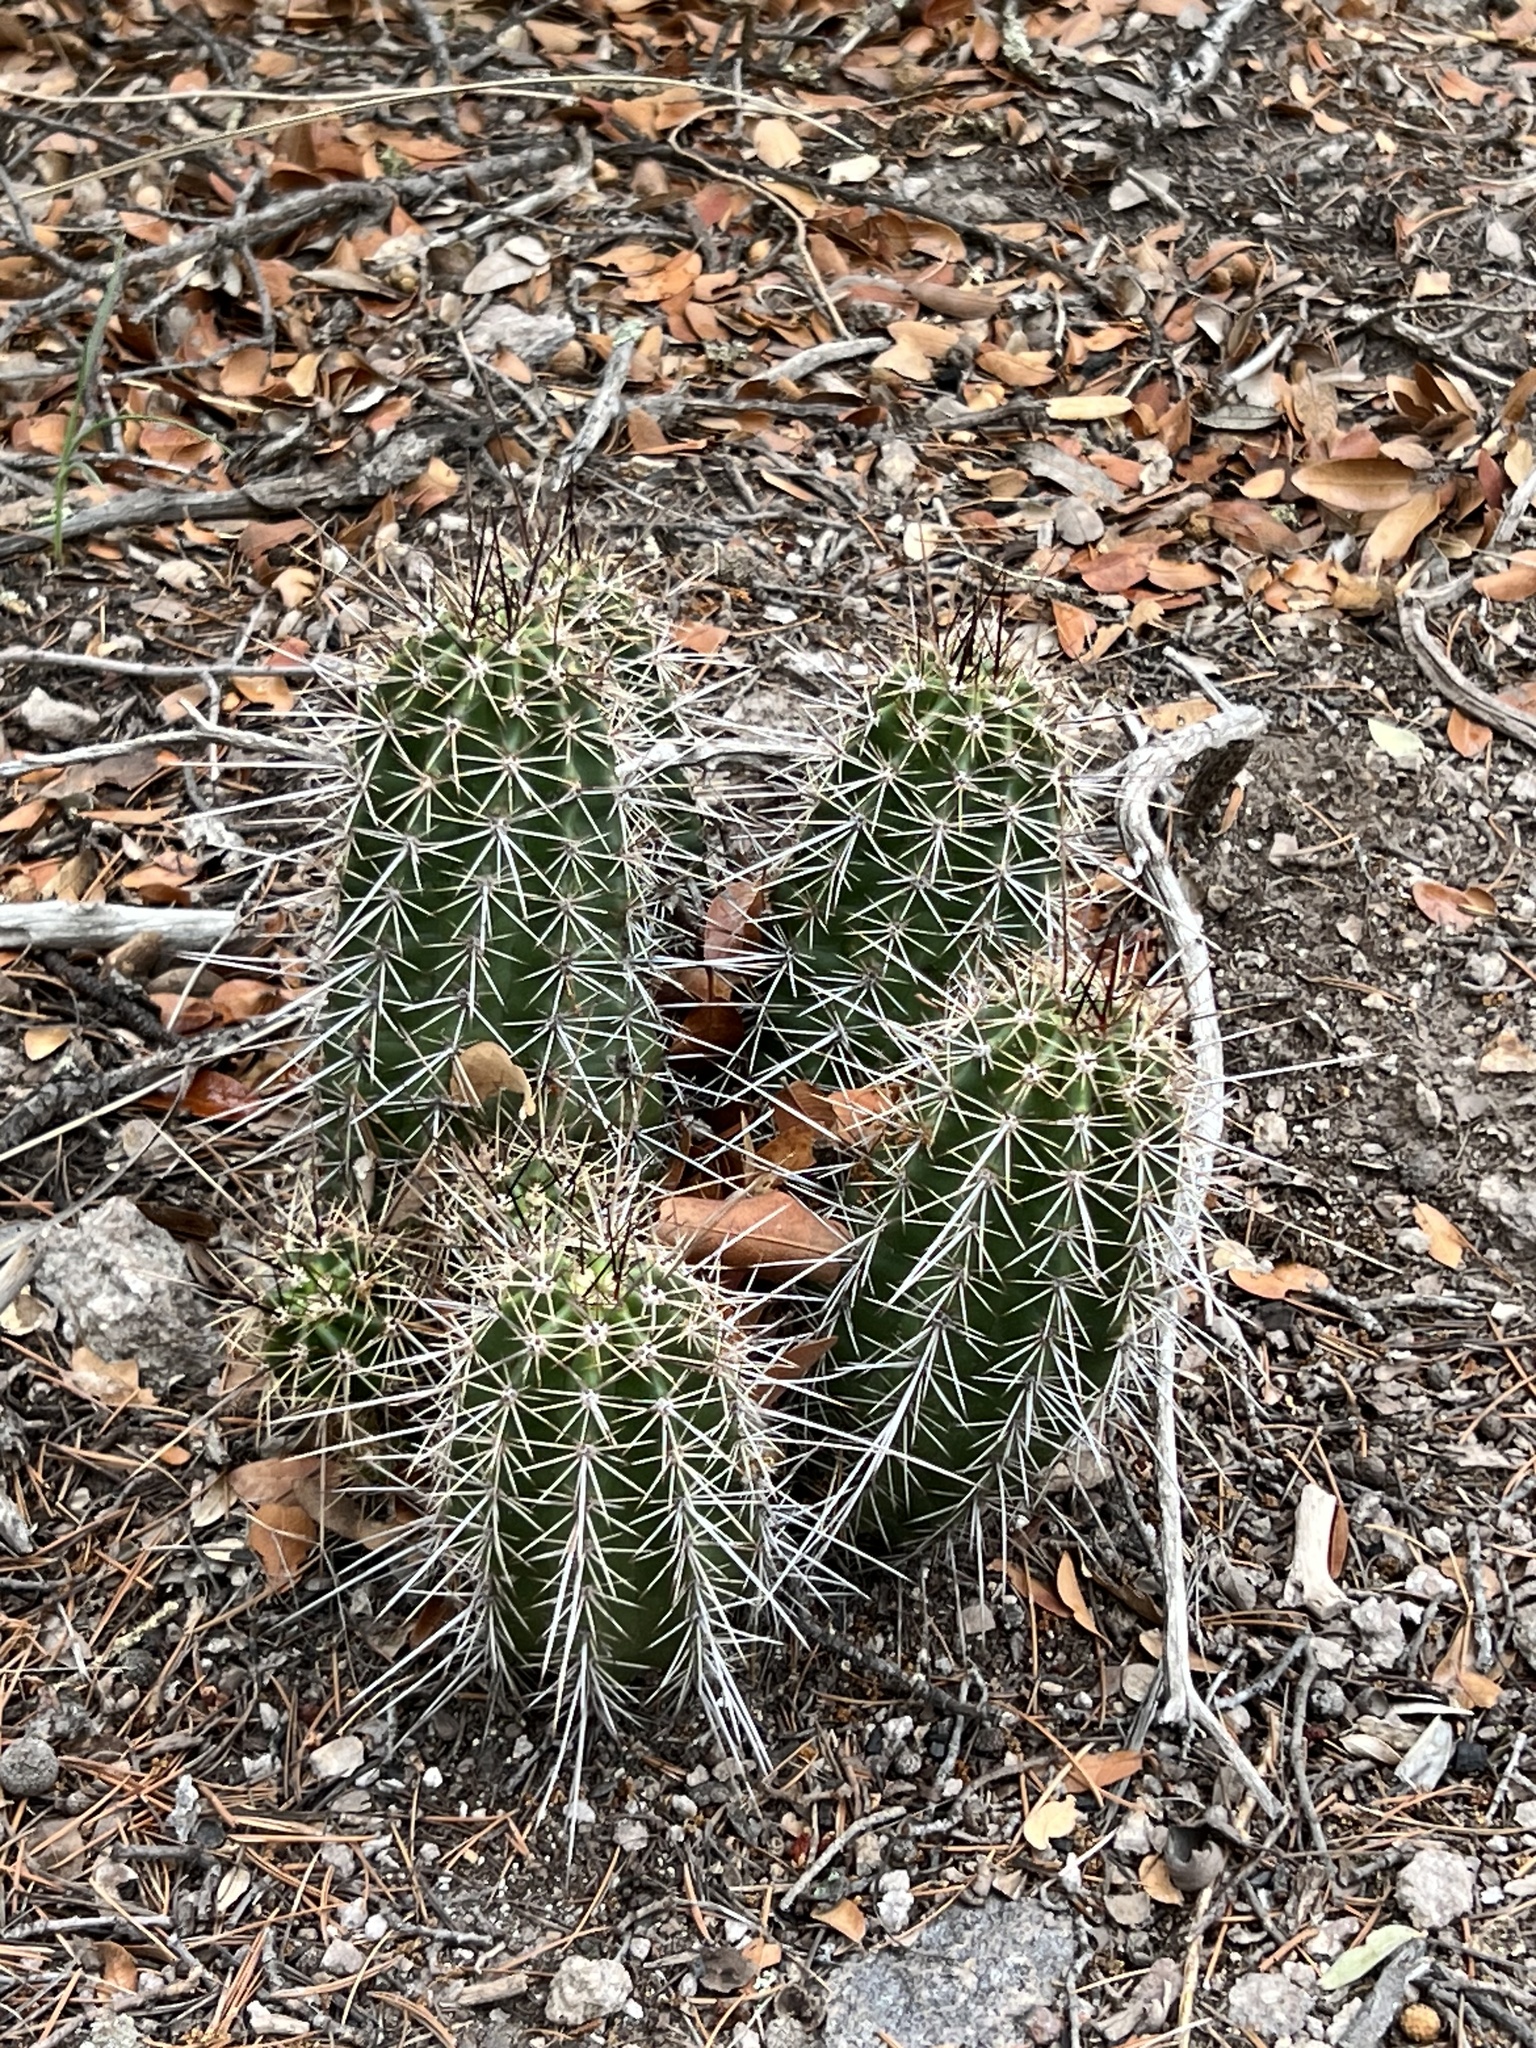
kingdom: Plantae
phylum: Tracheophyta
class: Magnoliopsida
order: Caryophyllales
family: Cactaceae
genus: Echinocereus
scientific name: Echinocereus coccineus
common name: Scarlet hedgehog cactus
